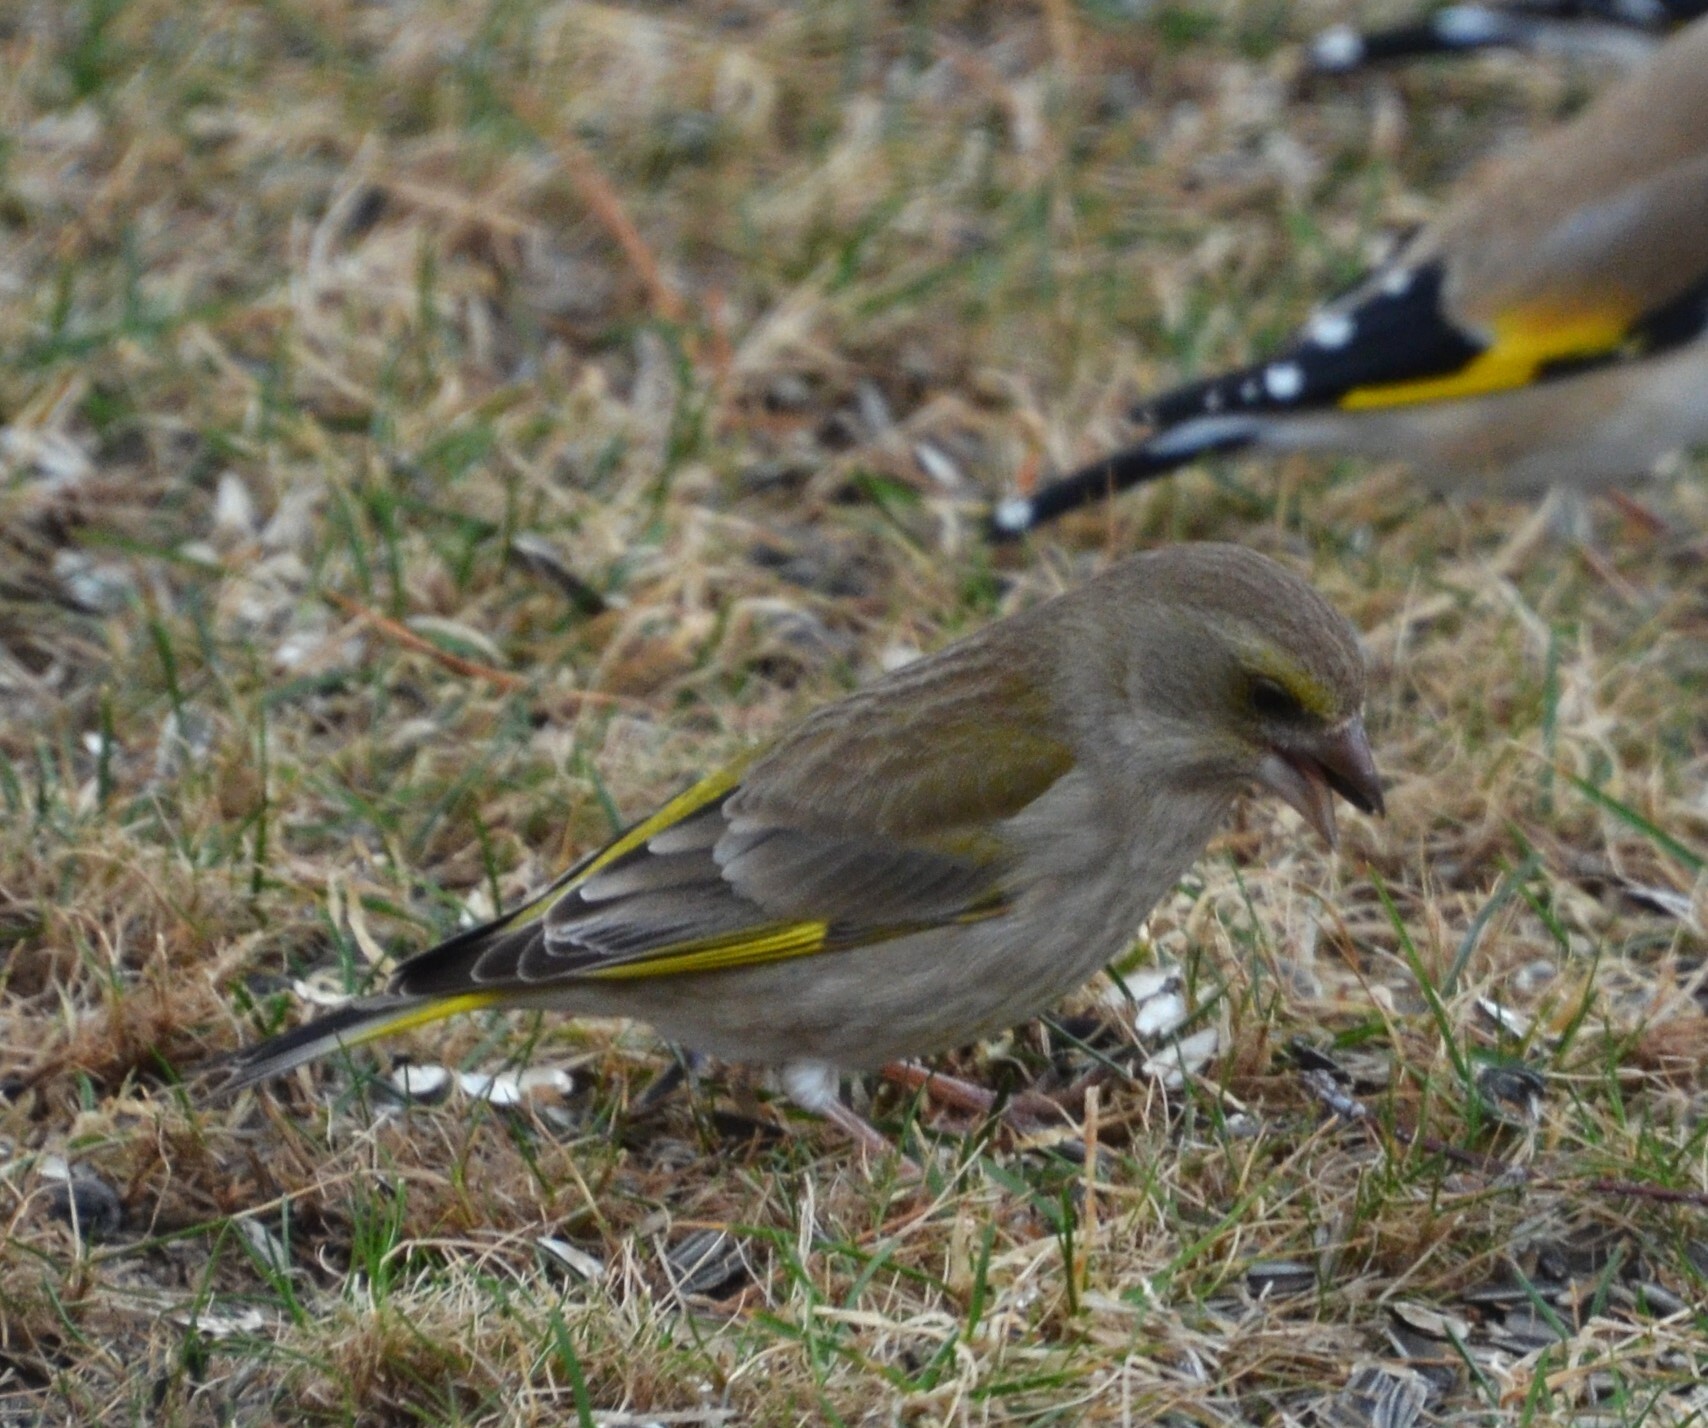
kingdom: Plantae
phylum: Tracheophyta
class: Liliopsida
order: Poales
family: Poaceae
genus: Chloris
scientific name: Chloris chloris
